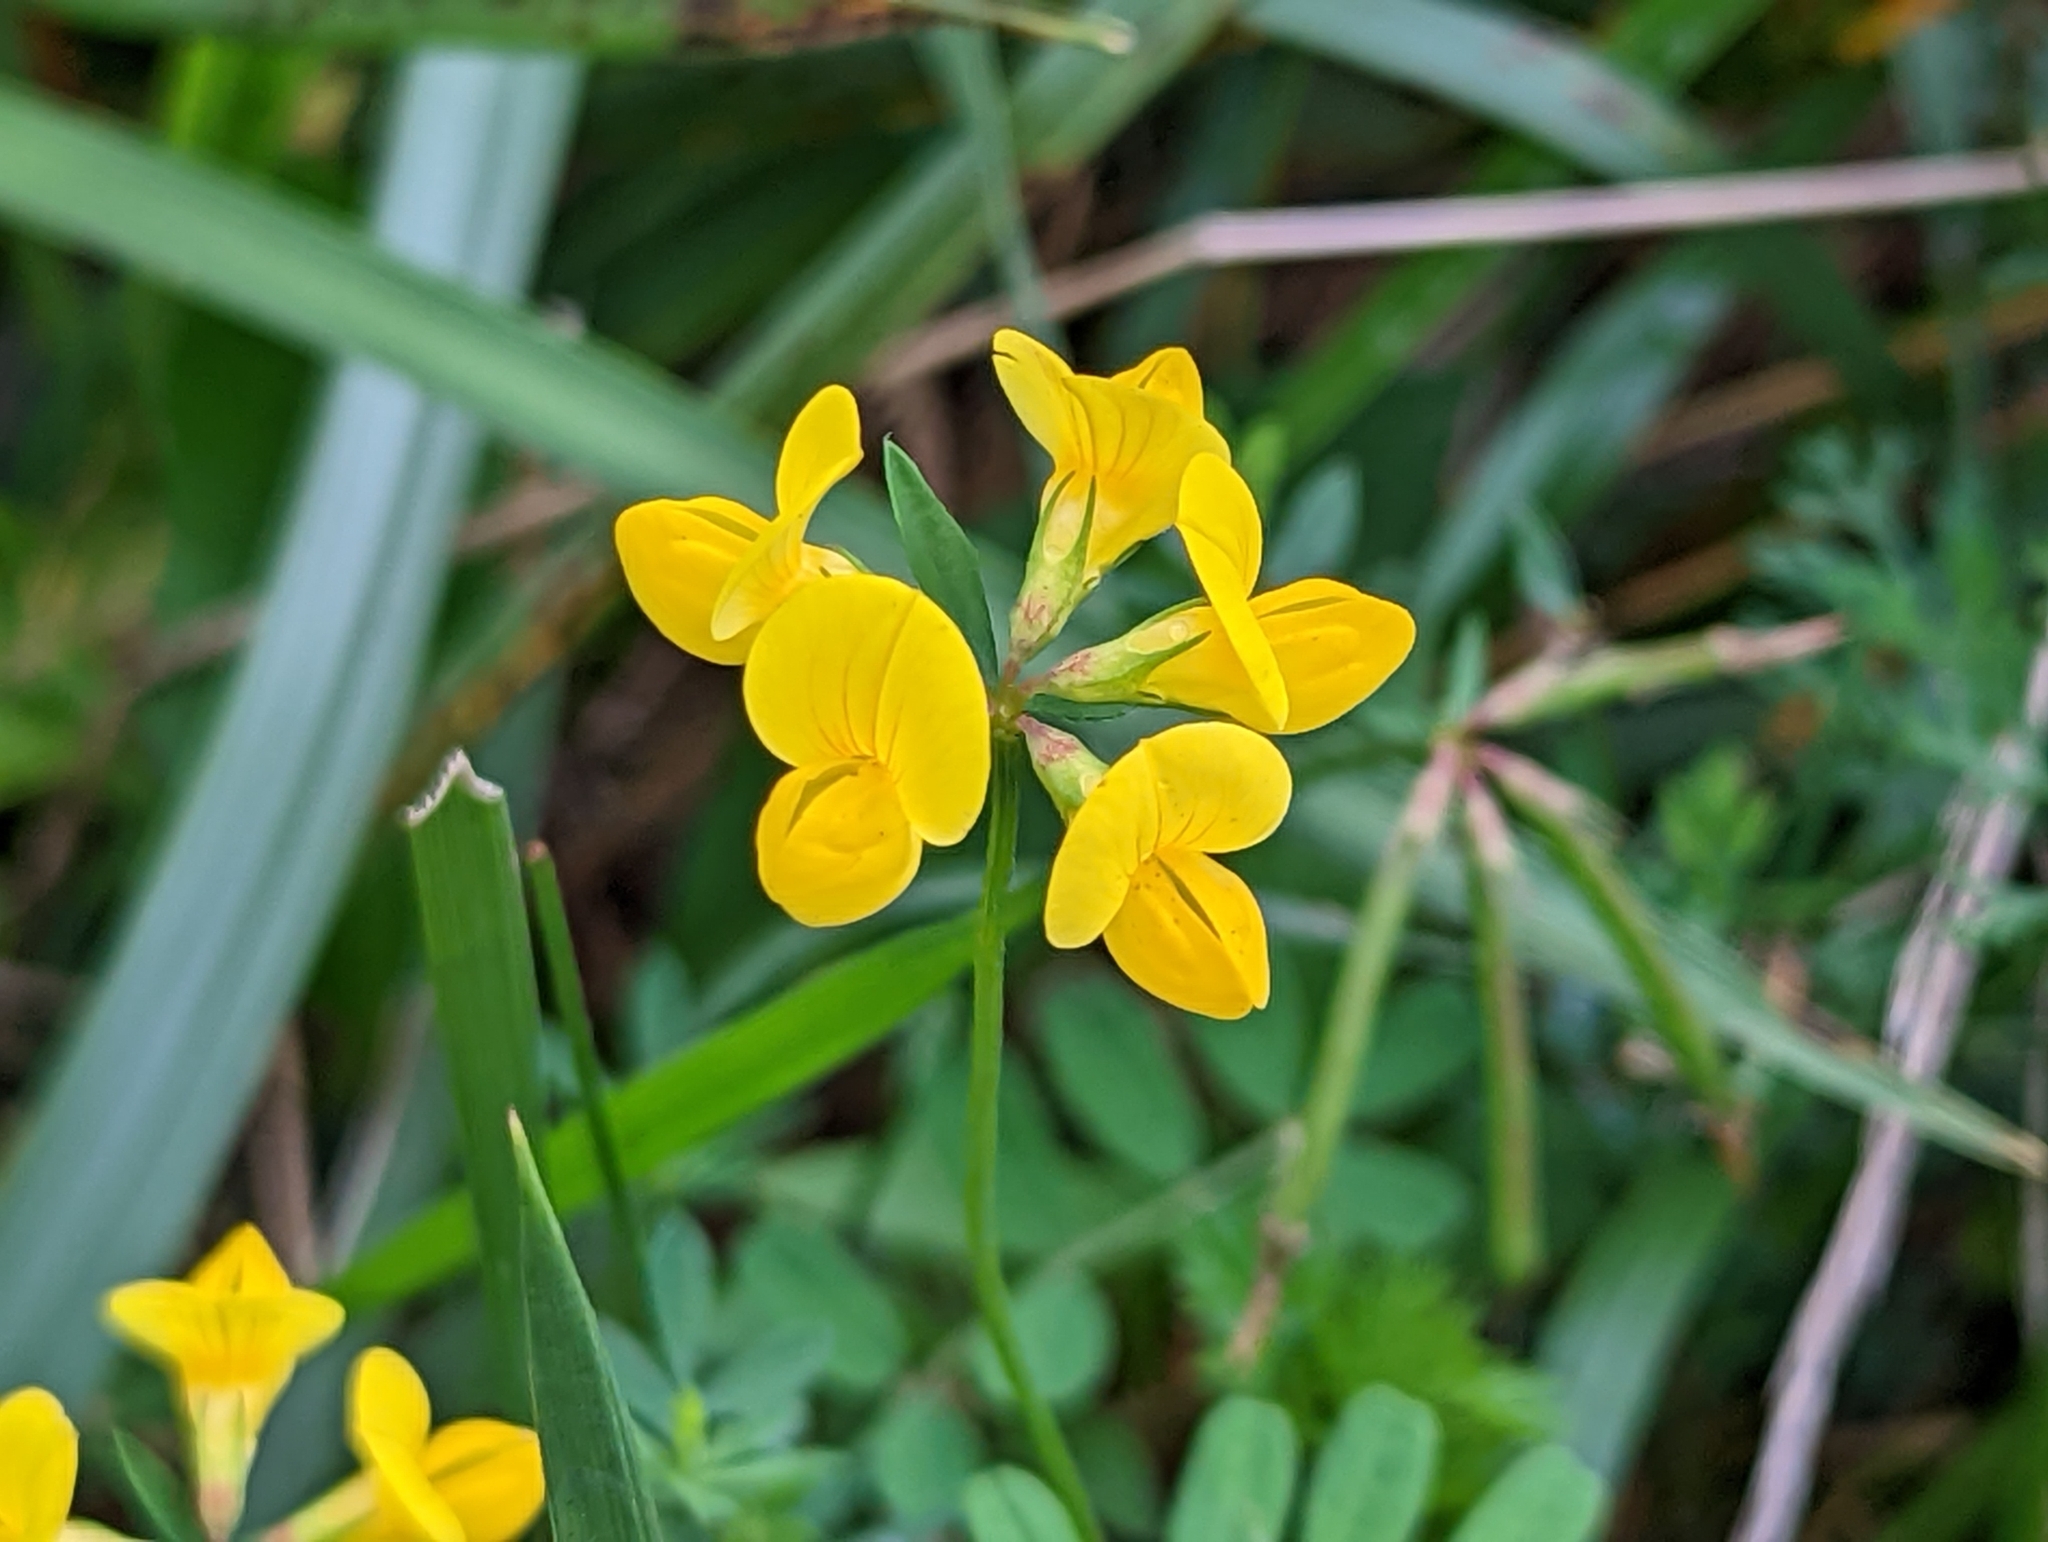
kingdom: Plantae
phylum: Tracheophyta
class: Magnoliopsida
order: Fabales
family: Fabaceae
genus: Lotus
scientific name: Lotus corniculatus
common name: Common bird's-foot-trefoil
